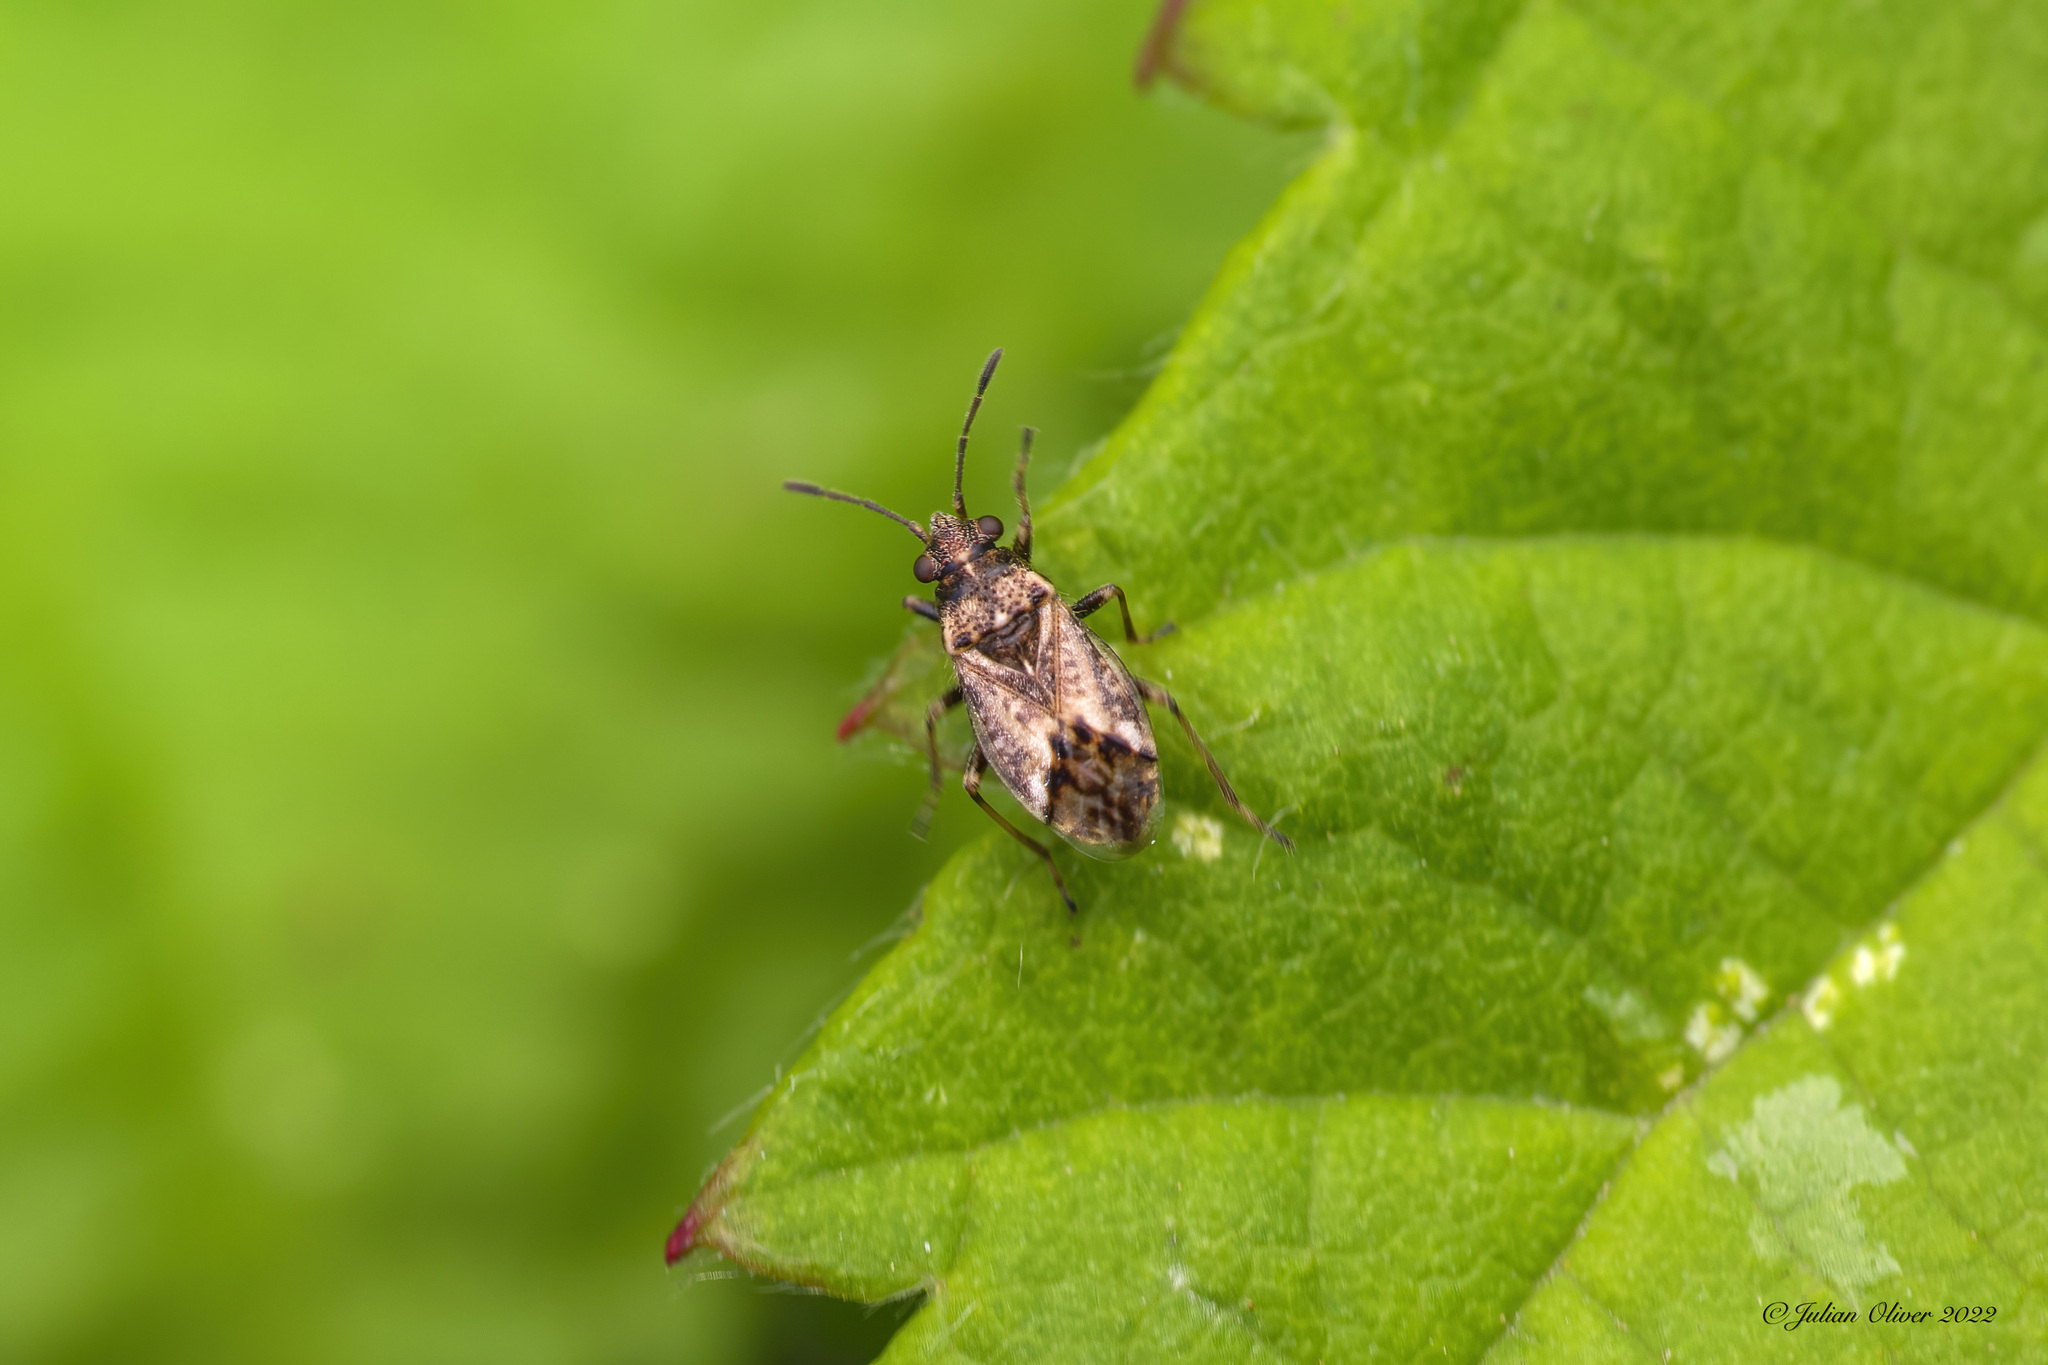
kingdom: Animalia
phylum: Arthropoda
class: Insecta
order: Hemiptera
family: Lygaeidae
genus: Nysius
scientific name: Nysius huttoni
